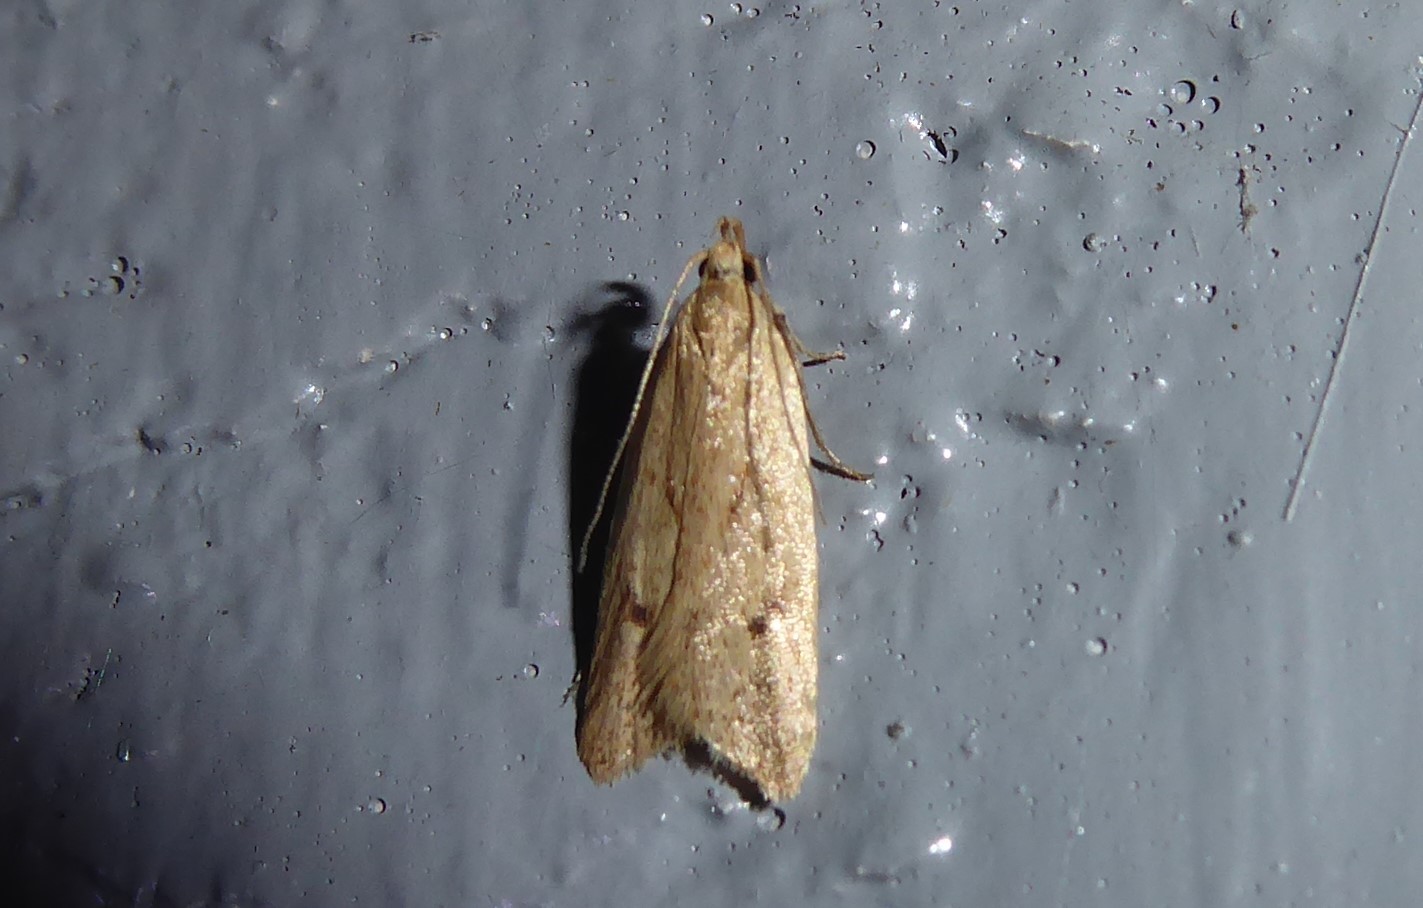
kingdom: Animalia
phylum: Arthropoda
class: Insecta
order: Lepidoptera
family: Oecophoridae
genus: Gymnobathra
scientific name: Gymnobathra sarcoxantha
